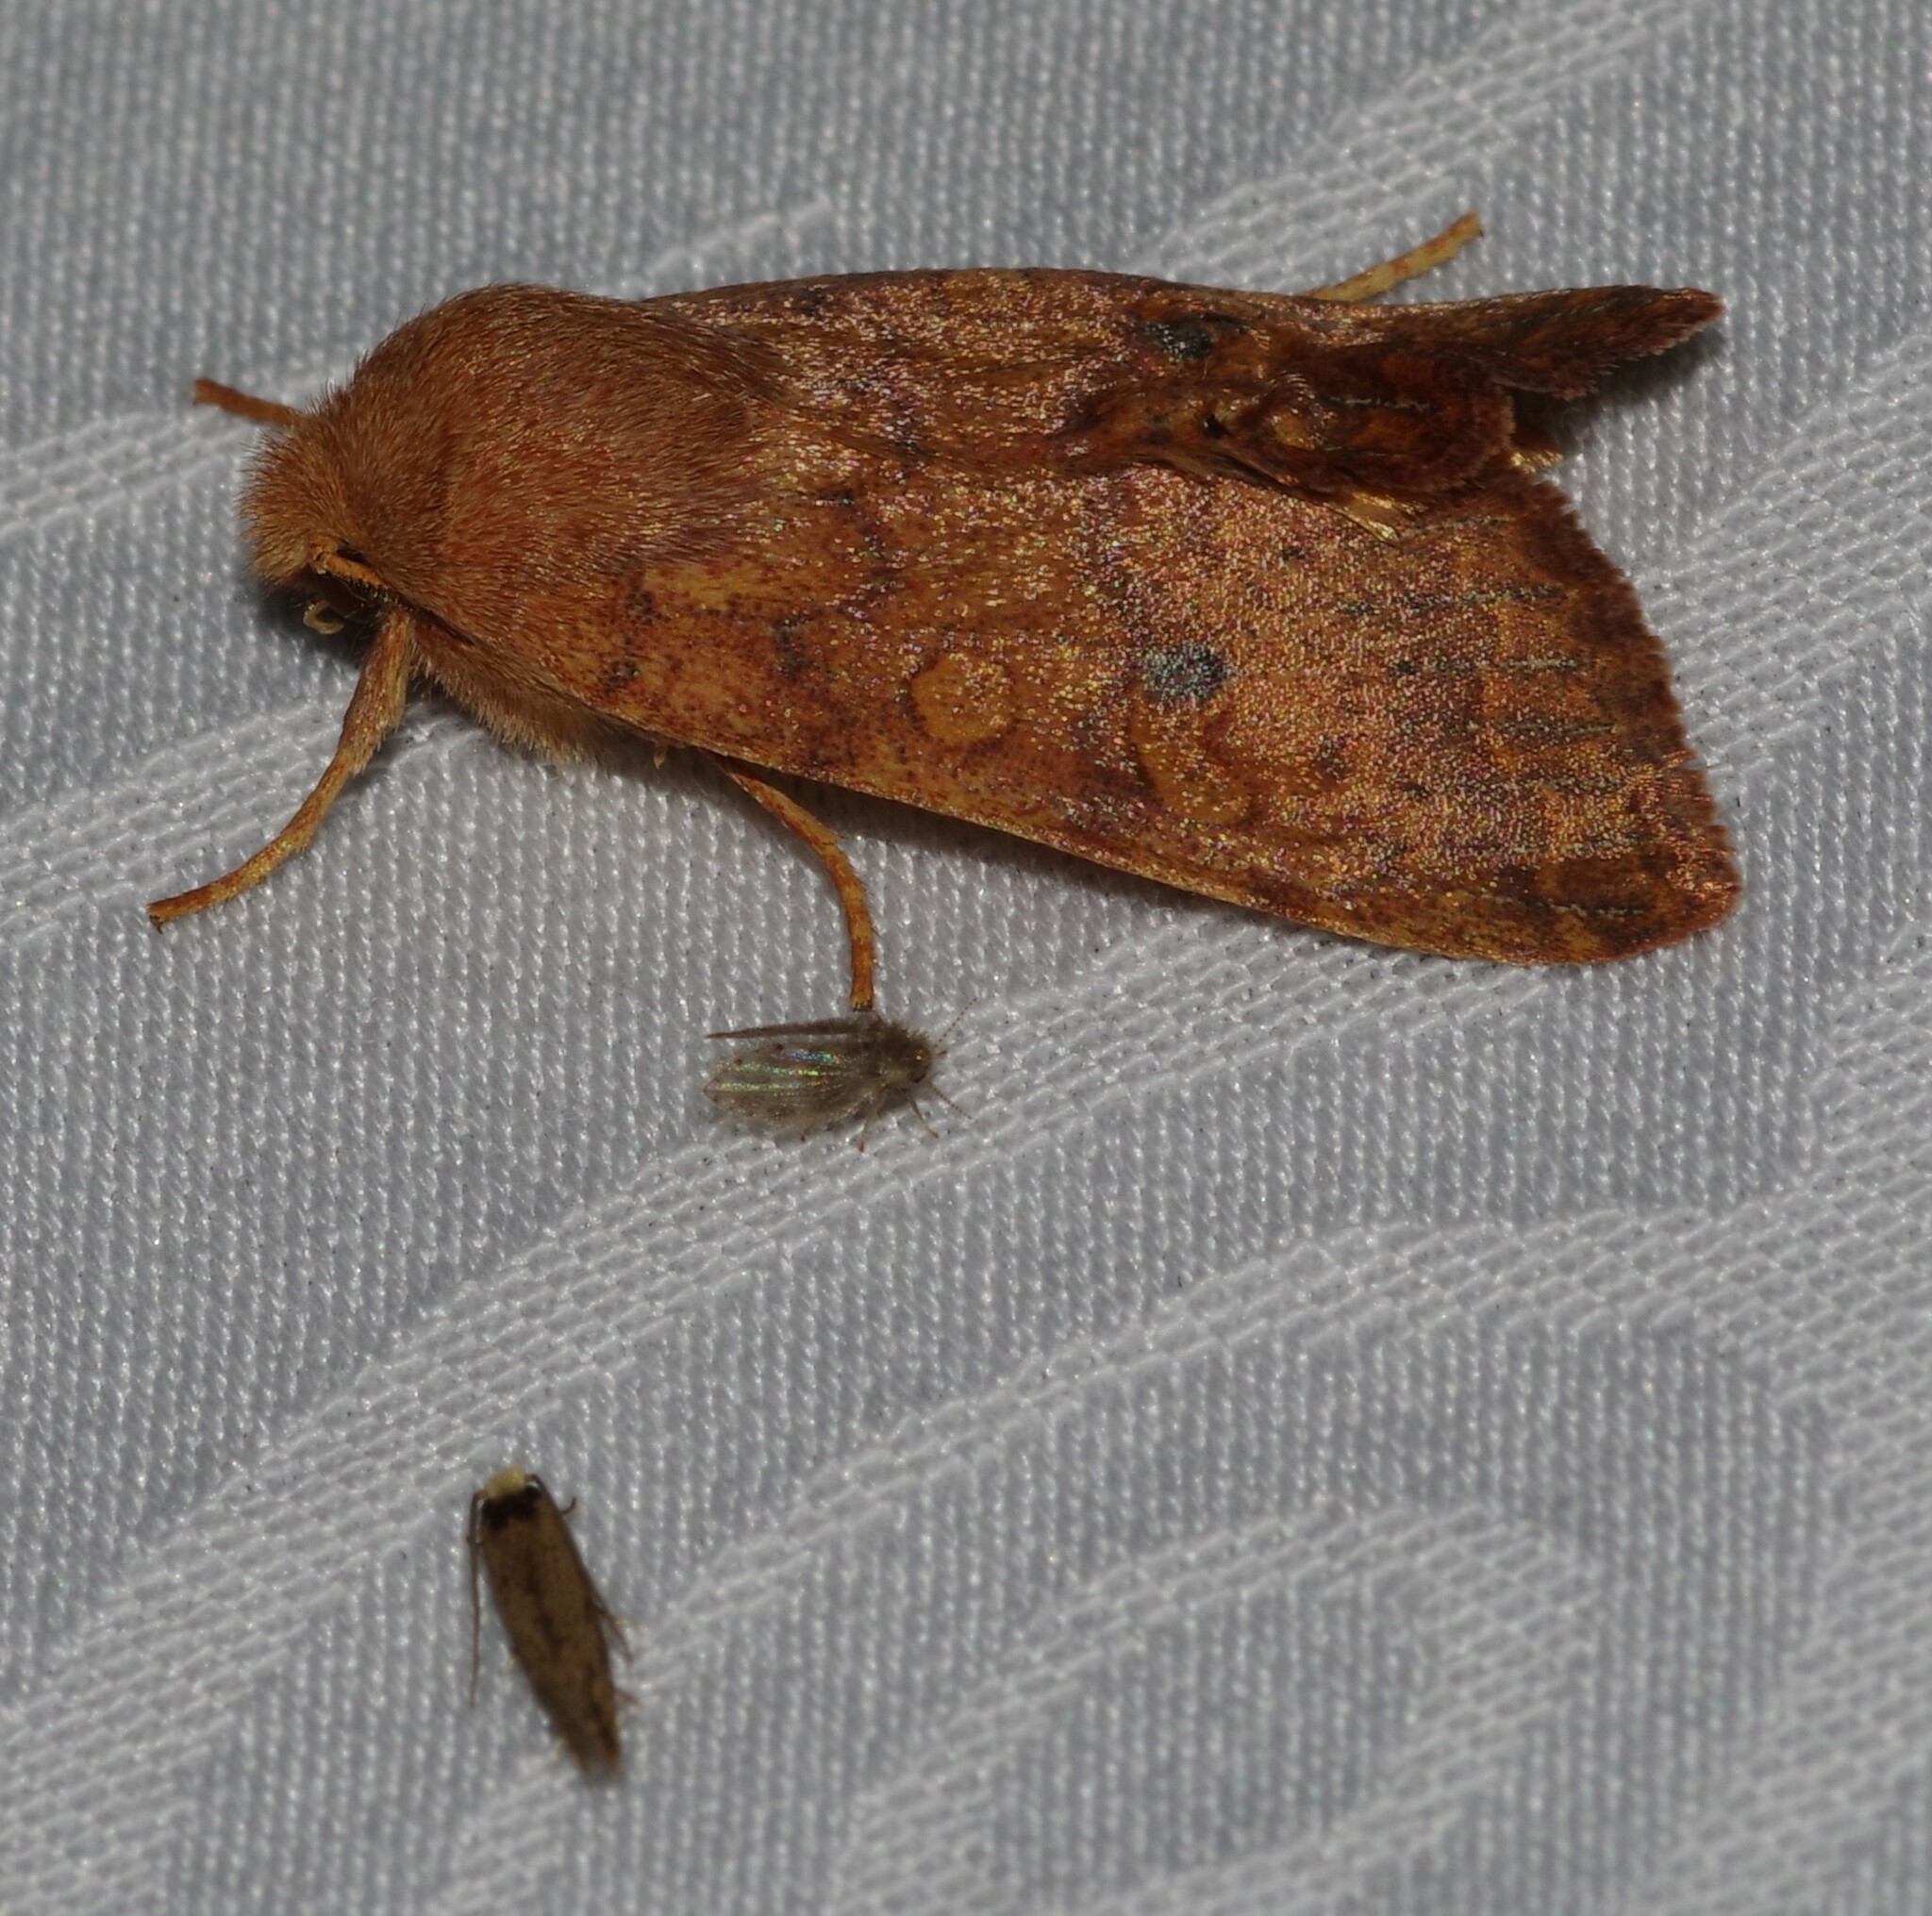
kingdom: Animalia
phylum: Arthropoda
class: Insecta
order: Lepidoptera
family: Noctuidae
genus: Agrochola
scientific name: Agrochola bicolorago
